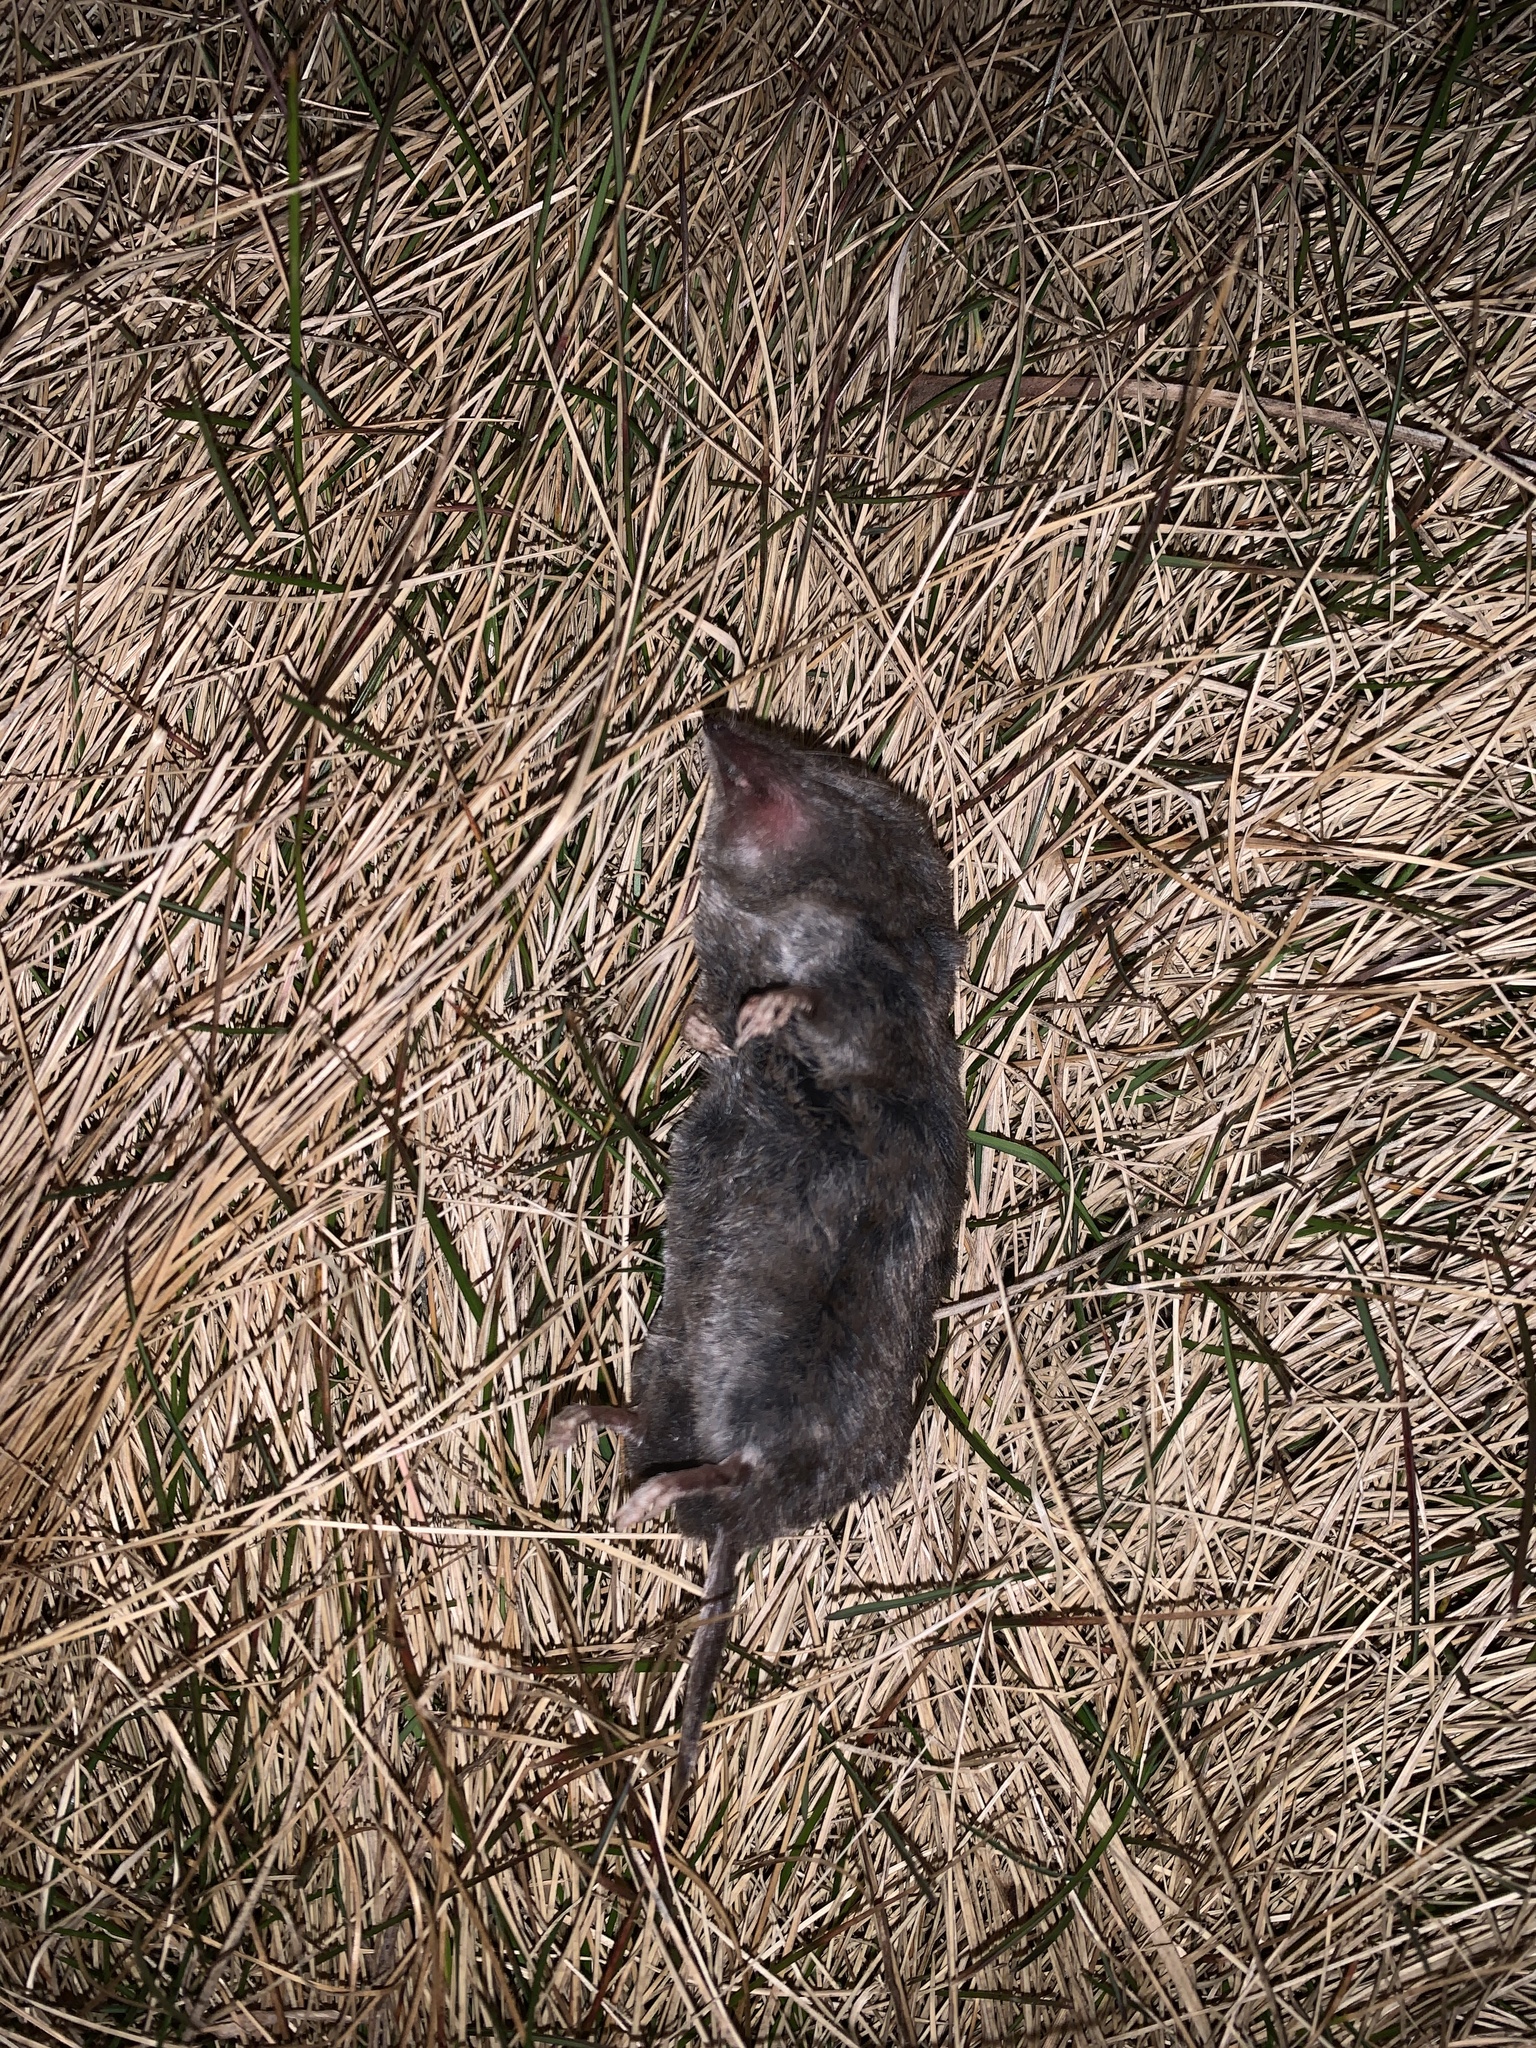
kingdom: Animalia
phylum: Chordata
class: Mammalia
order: Soricomorpha
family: Soricidae
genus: Blarina
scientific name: Blarina brevicauda
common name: Northern short-tailed shrew
